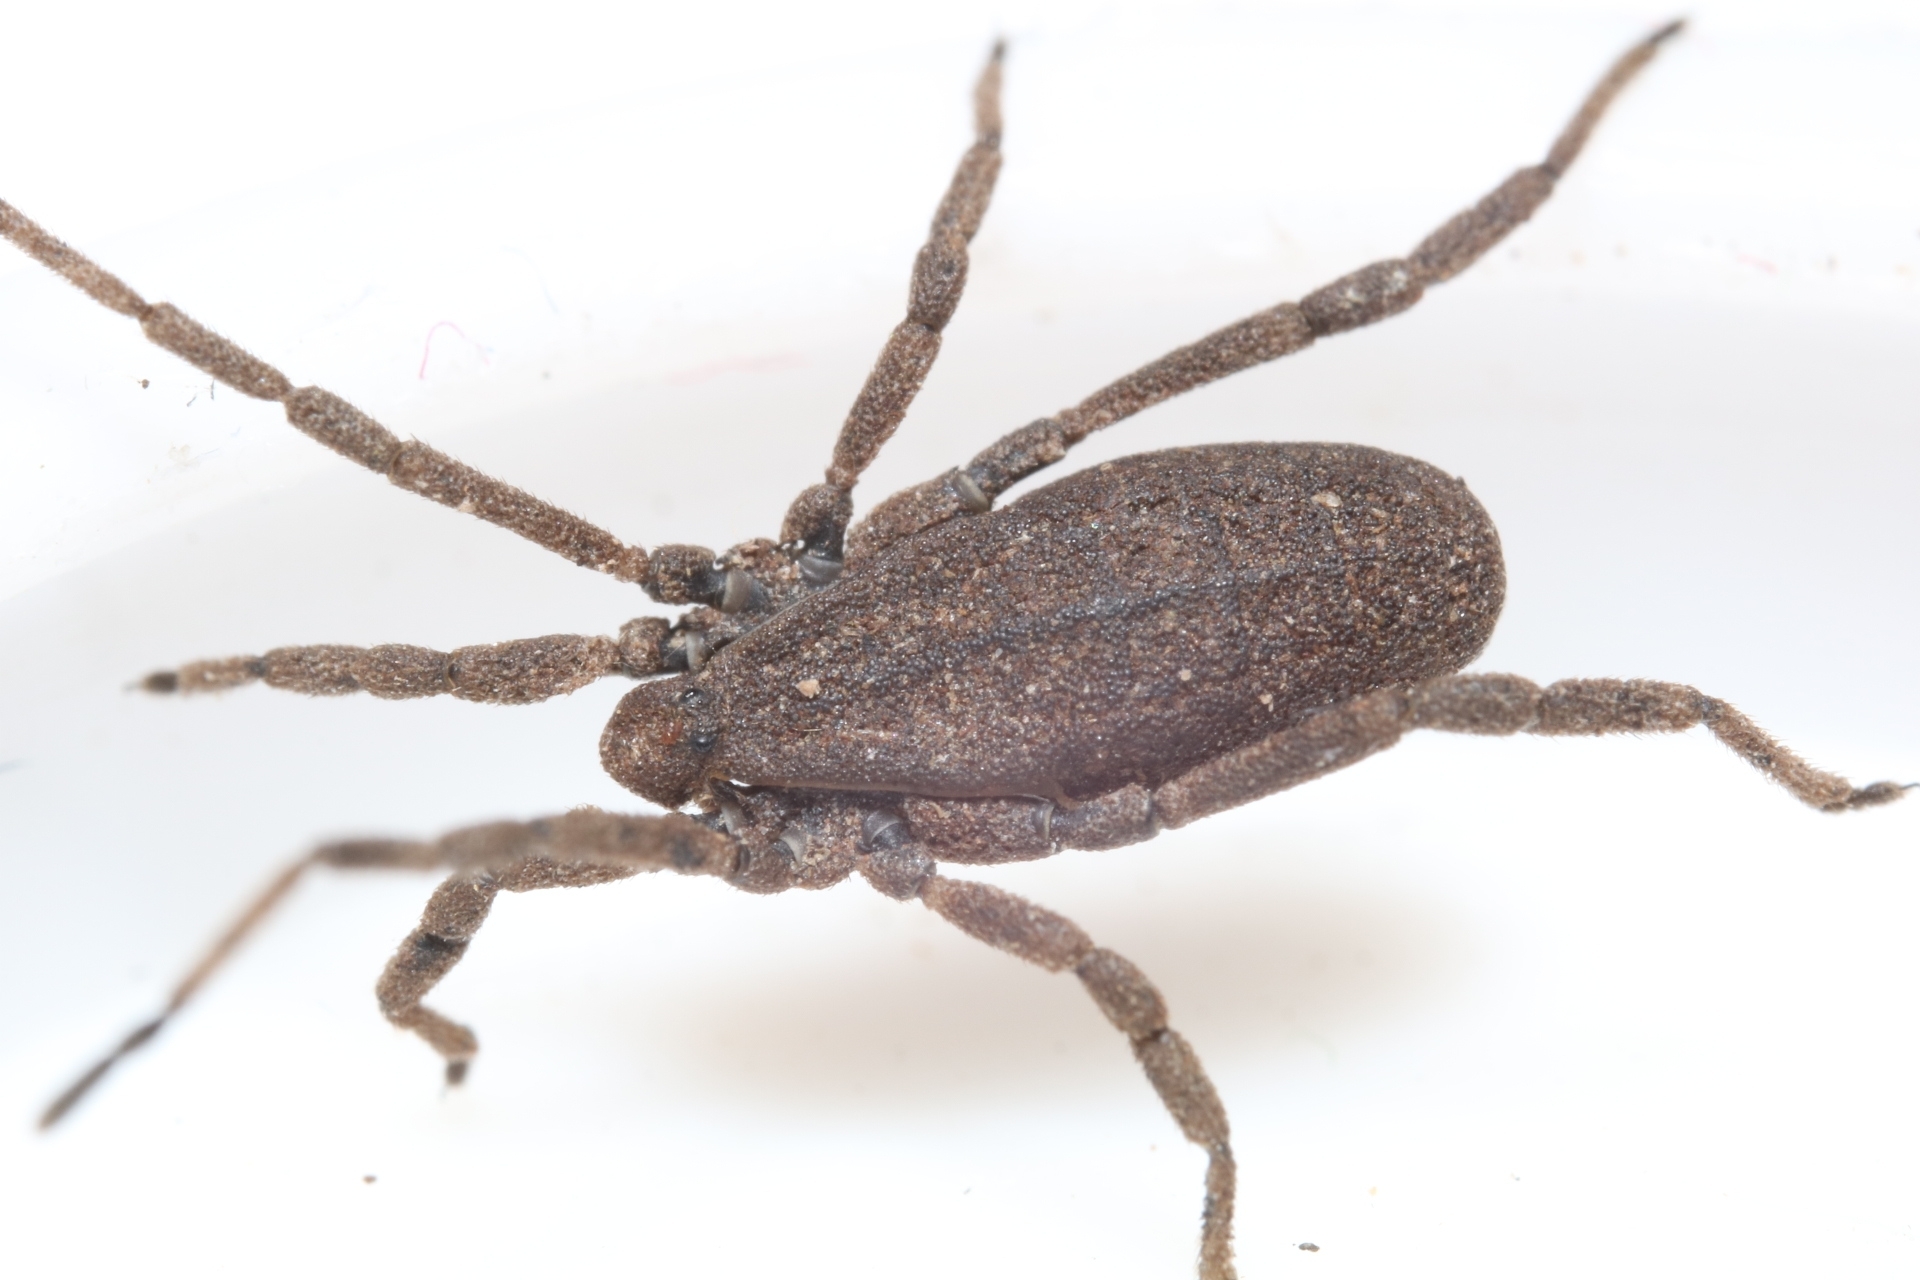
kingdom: Animalia
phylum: Arthropoda
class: Arachnida
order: Opiliones
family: Trogulidae
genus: Trogulus
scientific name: Trogulus tricarinatus
